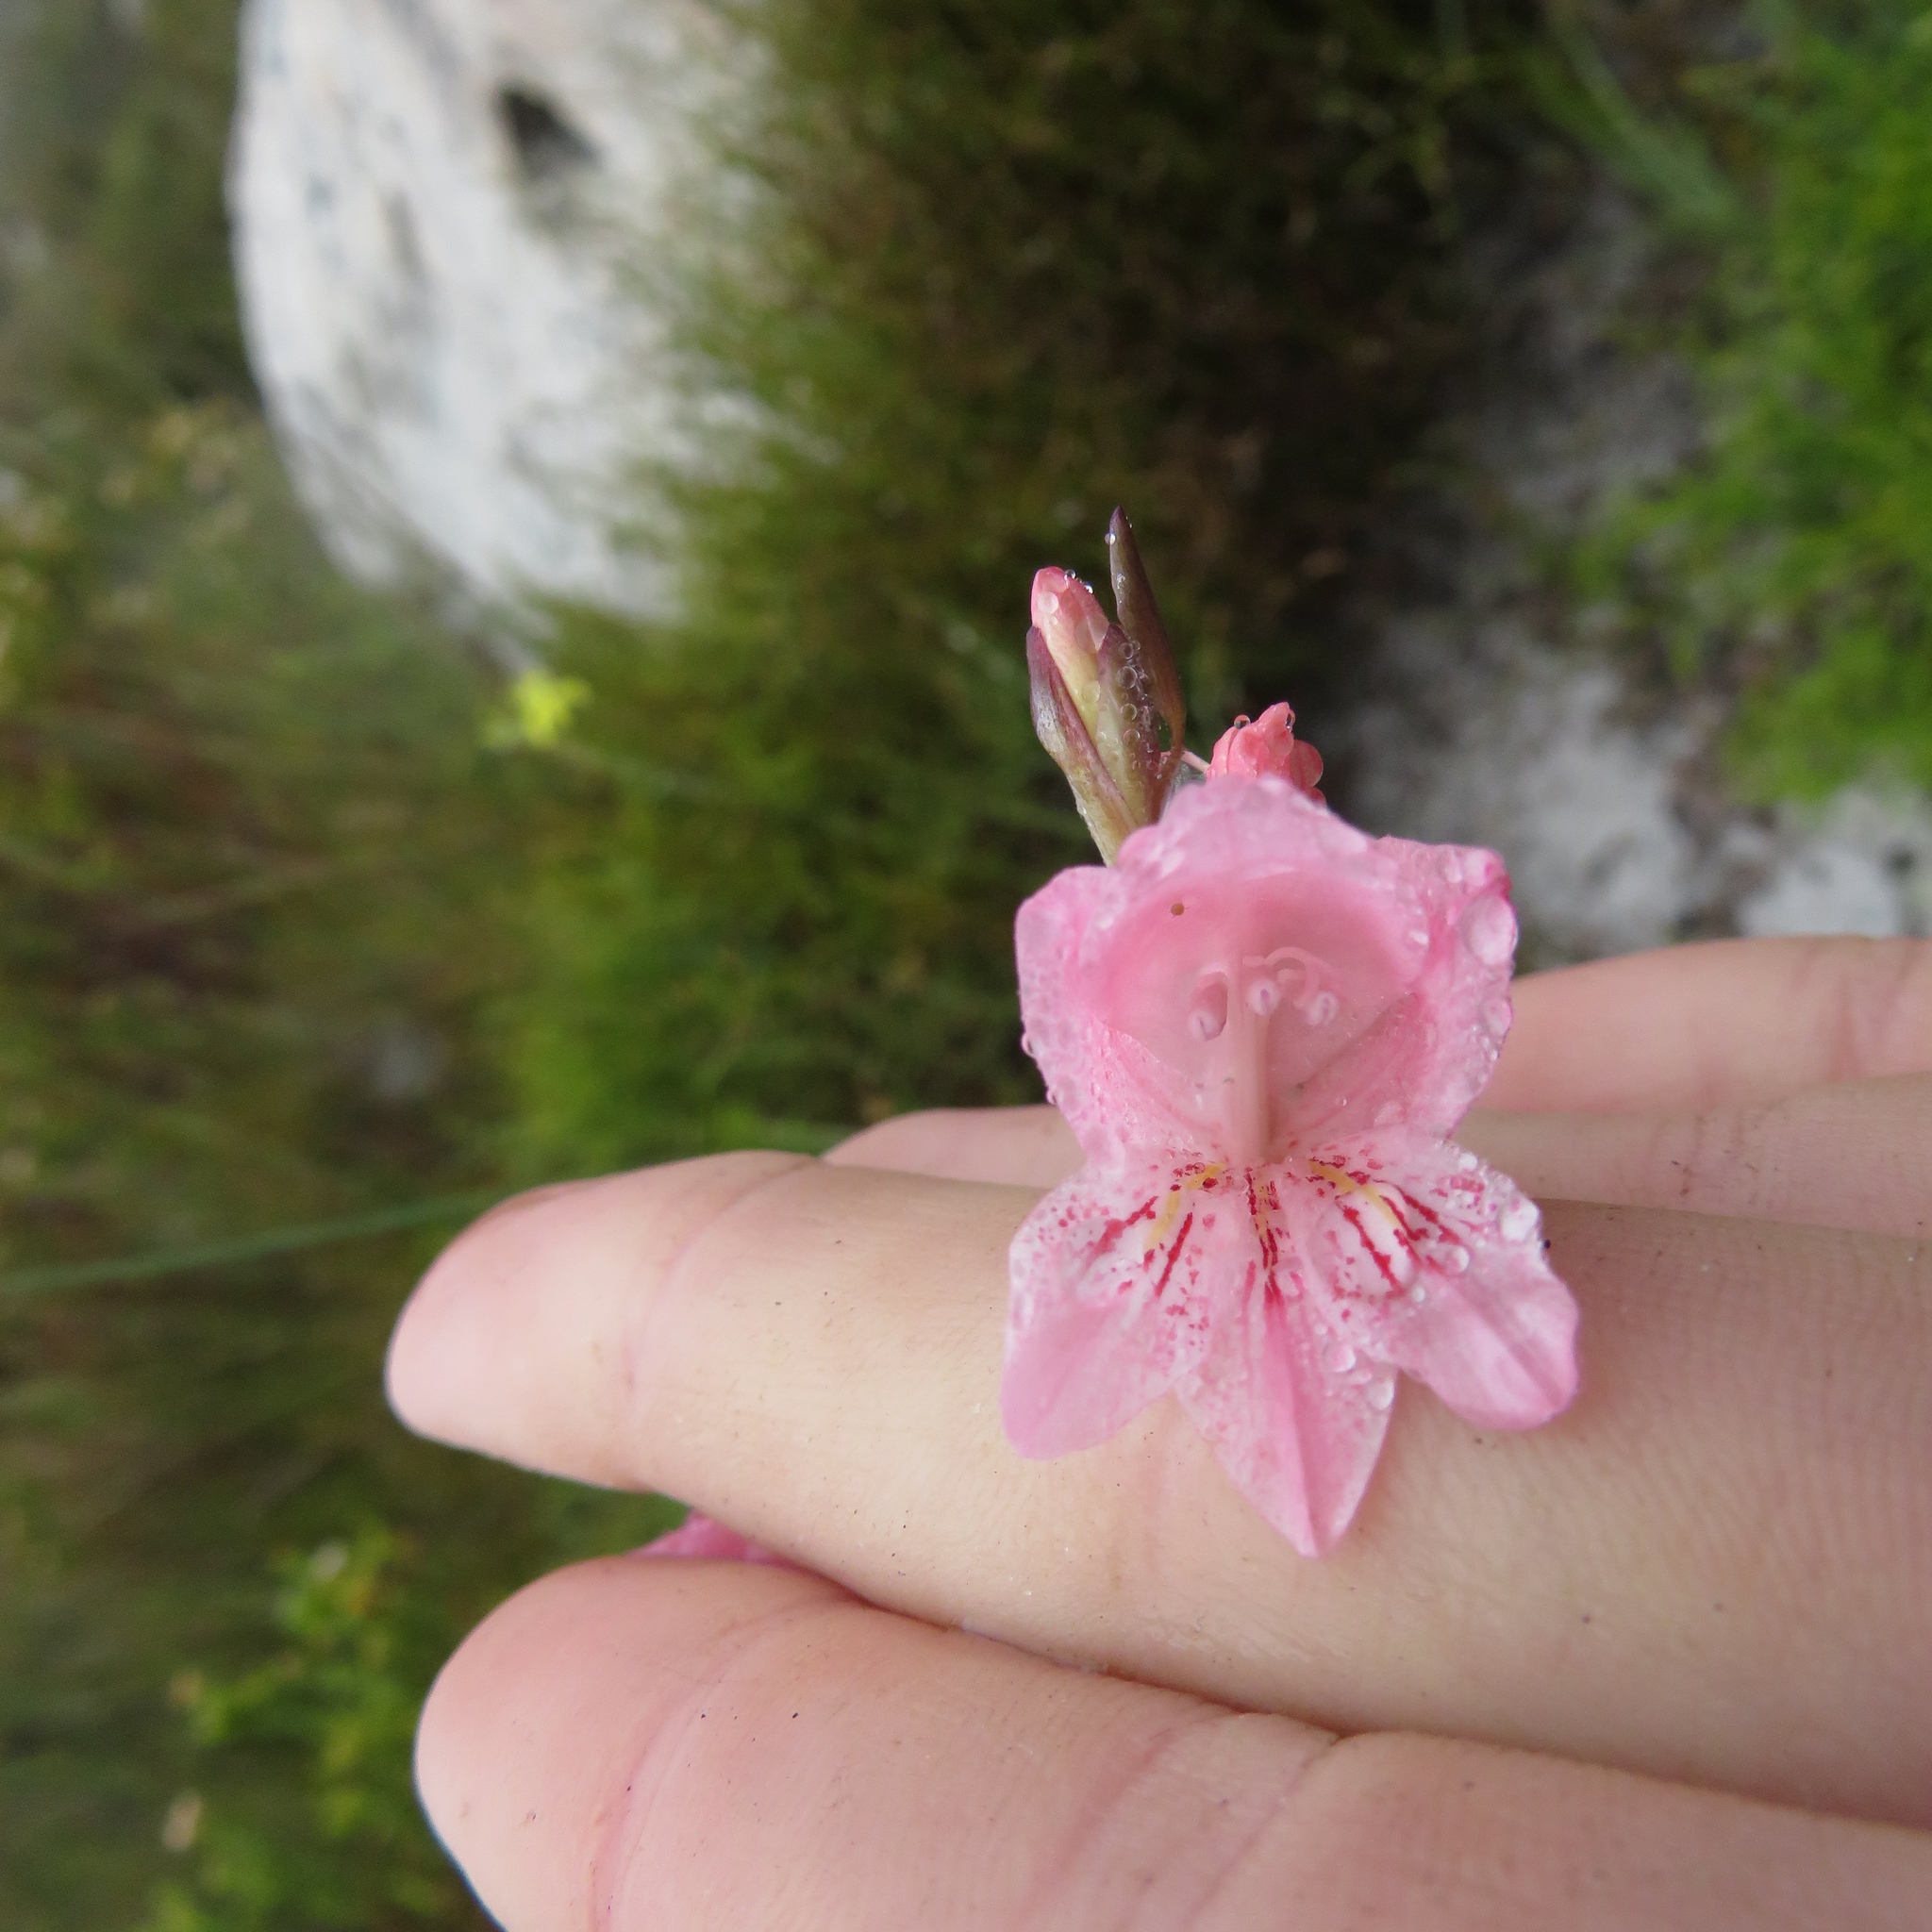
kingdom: Plantae
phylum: Tracheophyta
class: Liliopsida
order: Asparagales
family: Iridaceae
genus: Gladiolus
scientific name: Gladiolus brevifolius
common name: March pypie
